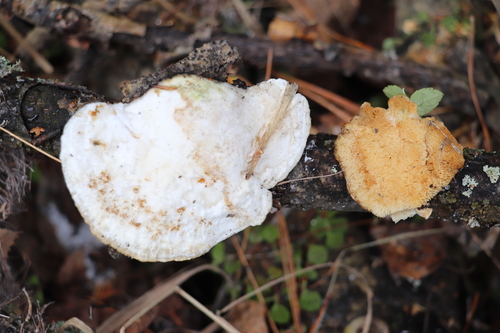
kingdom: Fungi
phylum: Basidiomycota
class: Agaricomycetes
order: Polyporales
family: Polyporaceae
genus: Trametes
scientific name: Trametes pubescens
